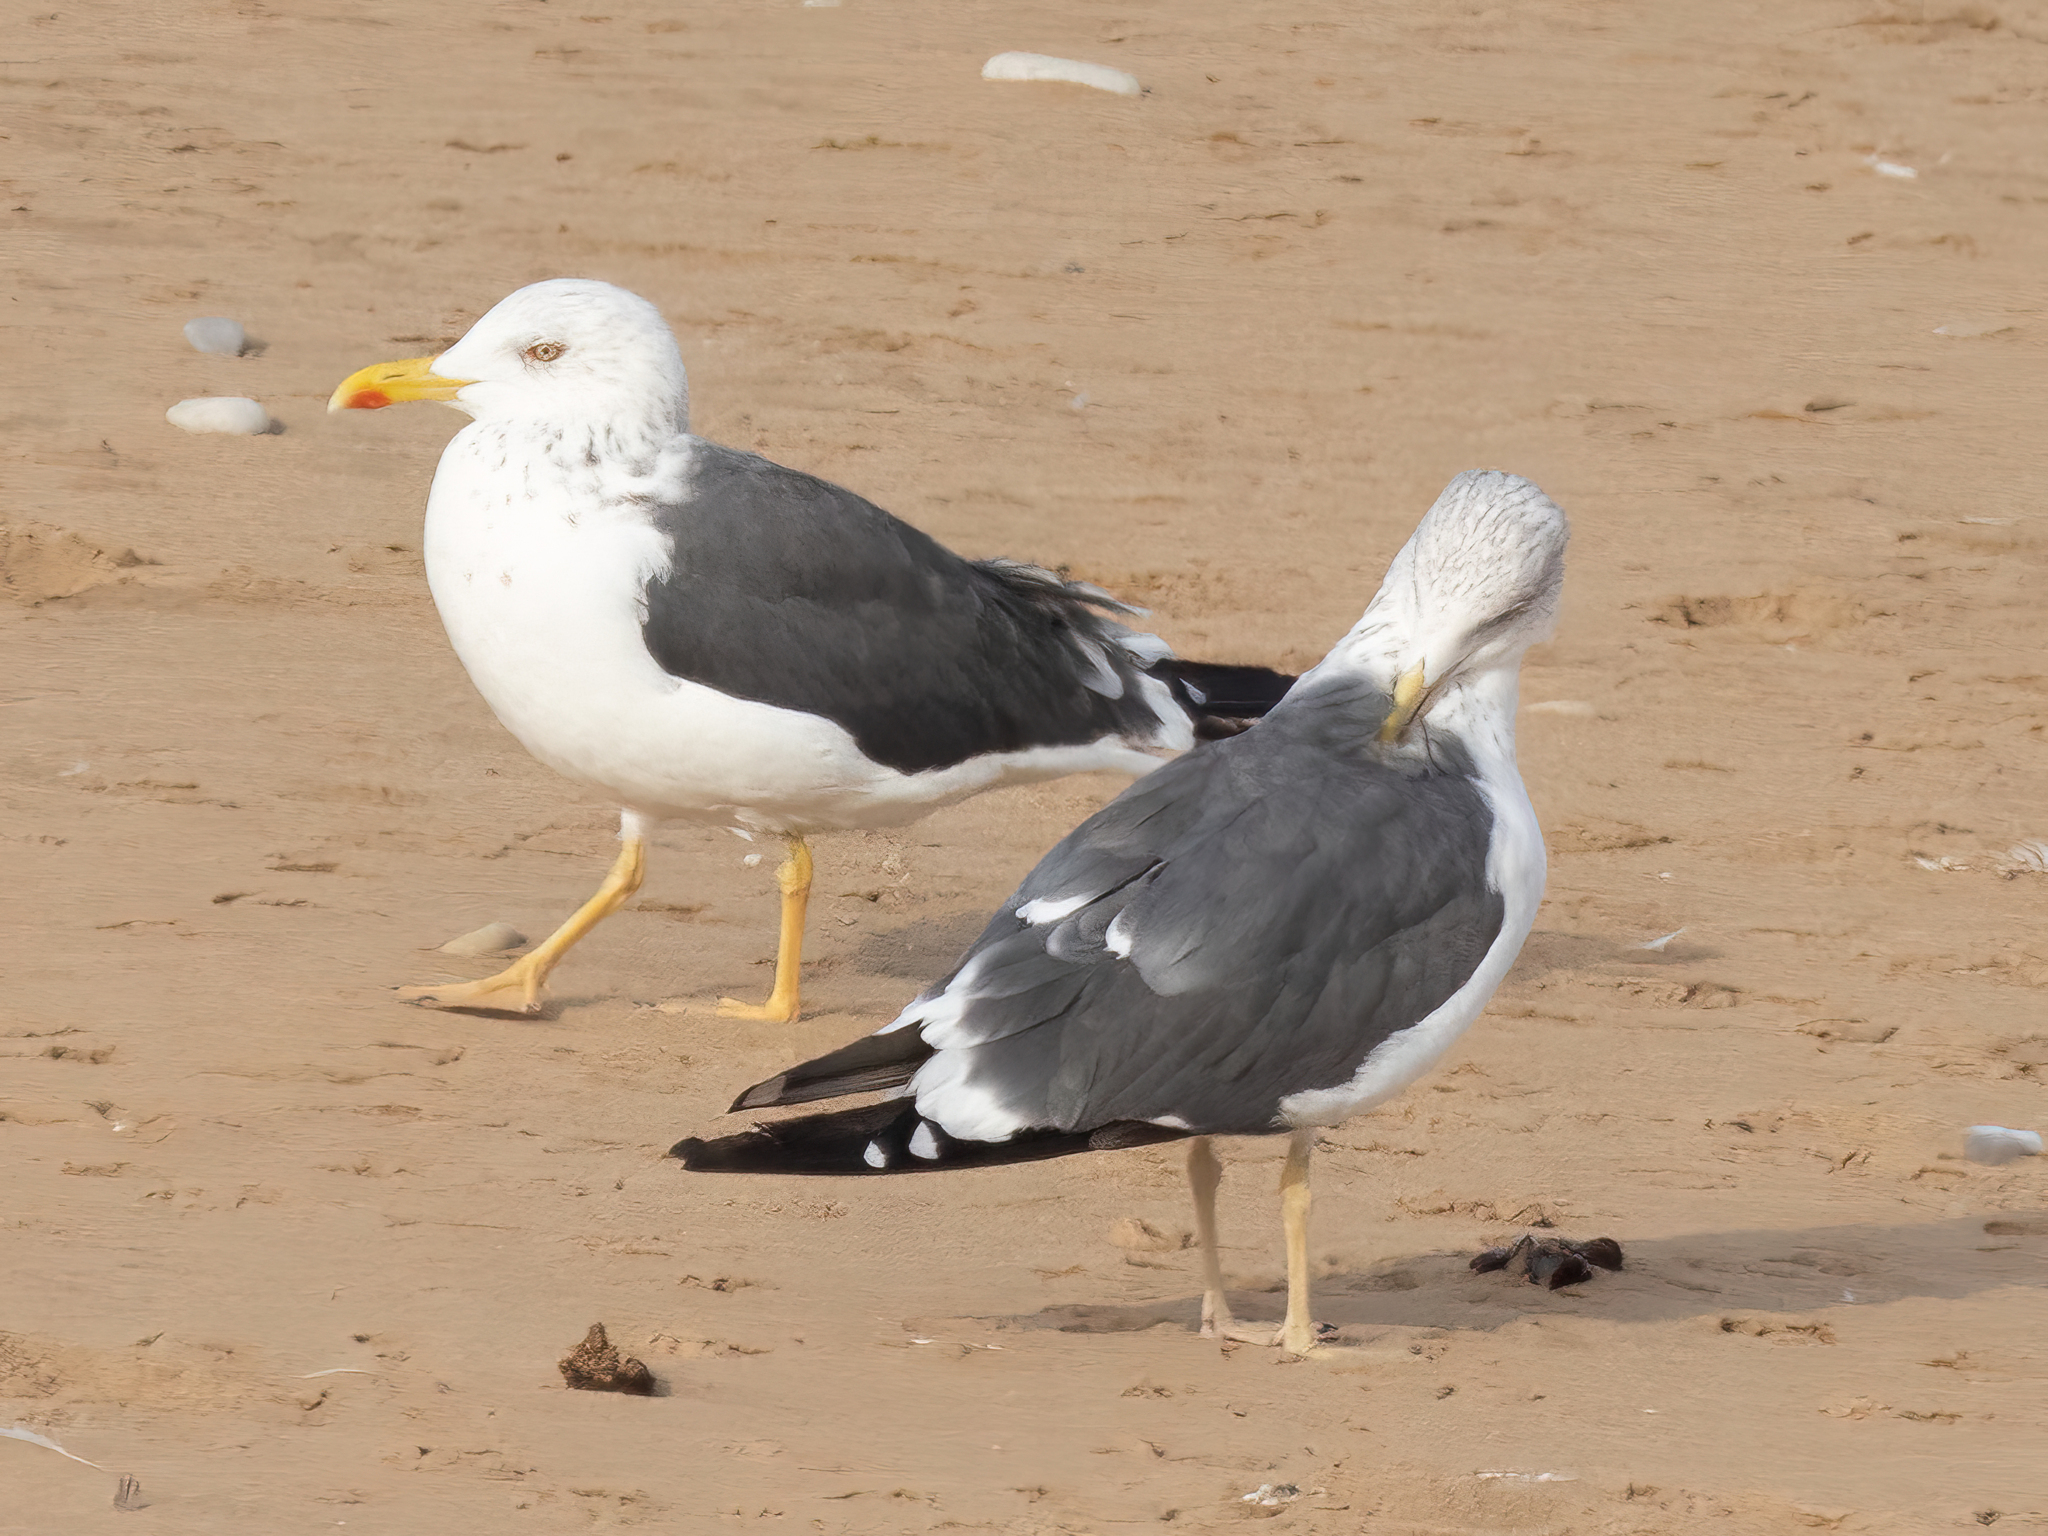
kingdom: Animalia
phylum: Chordata
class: Aves
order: Charadriiformes
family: Laridae
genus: Larus
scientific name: Larus fuscus
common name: Lesser black-backed gull
